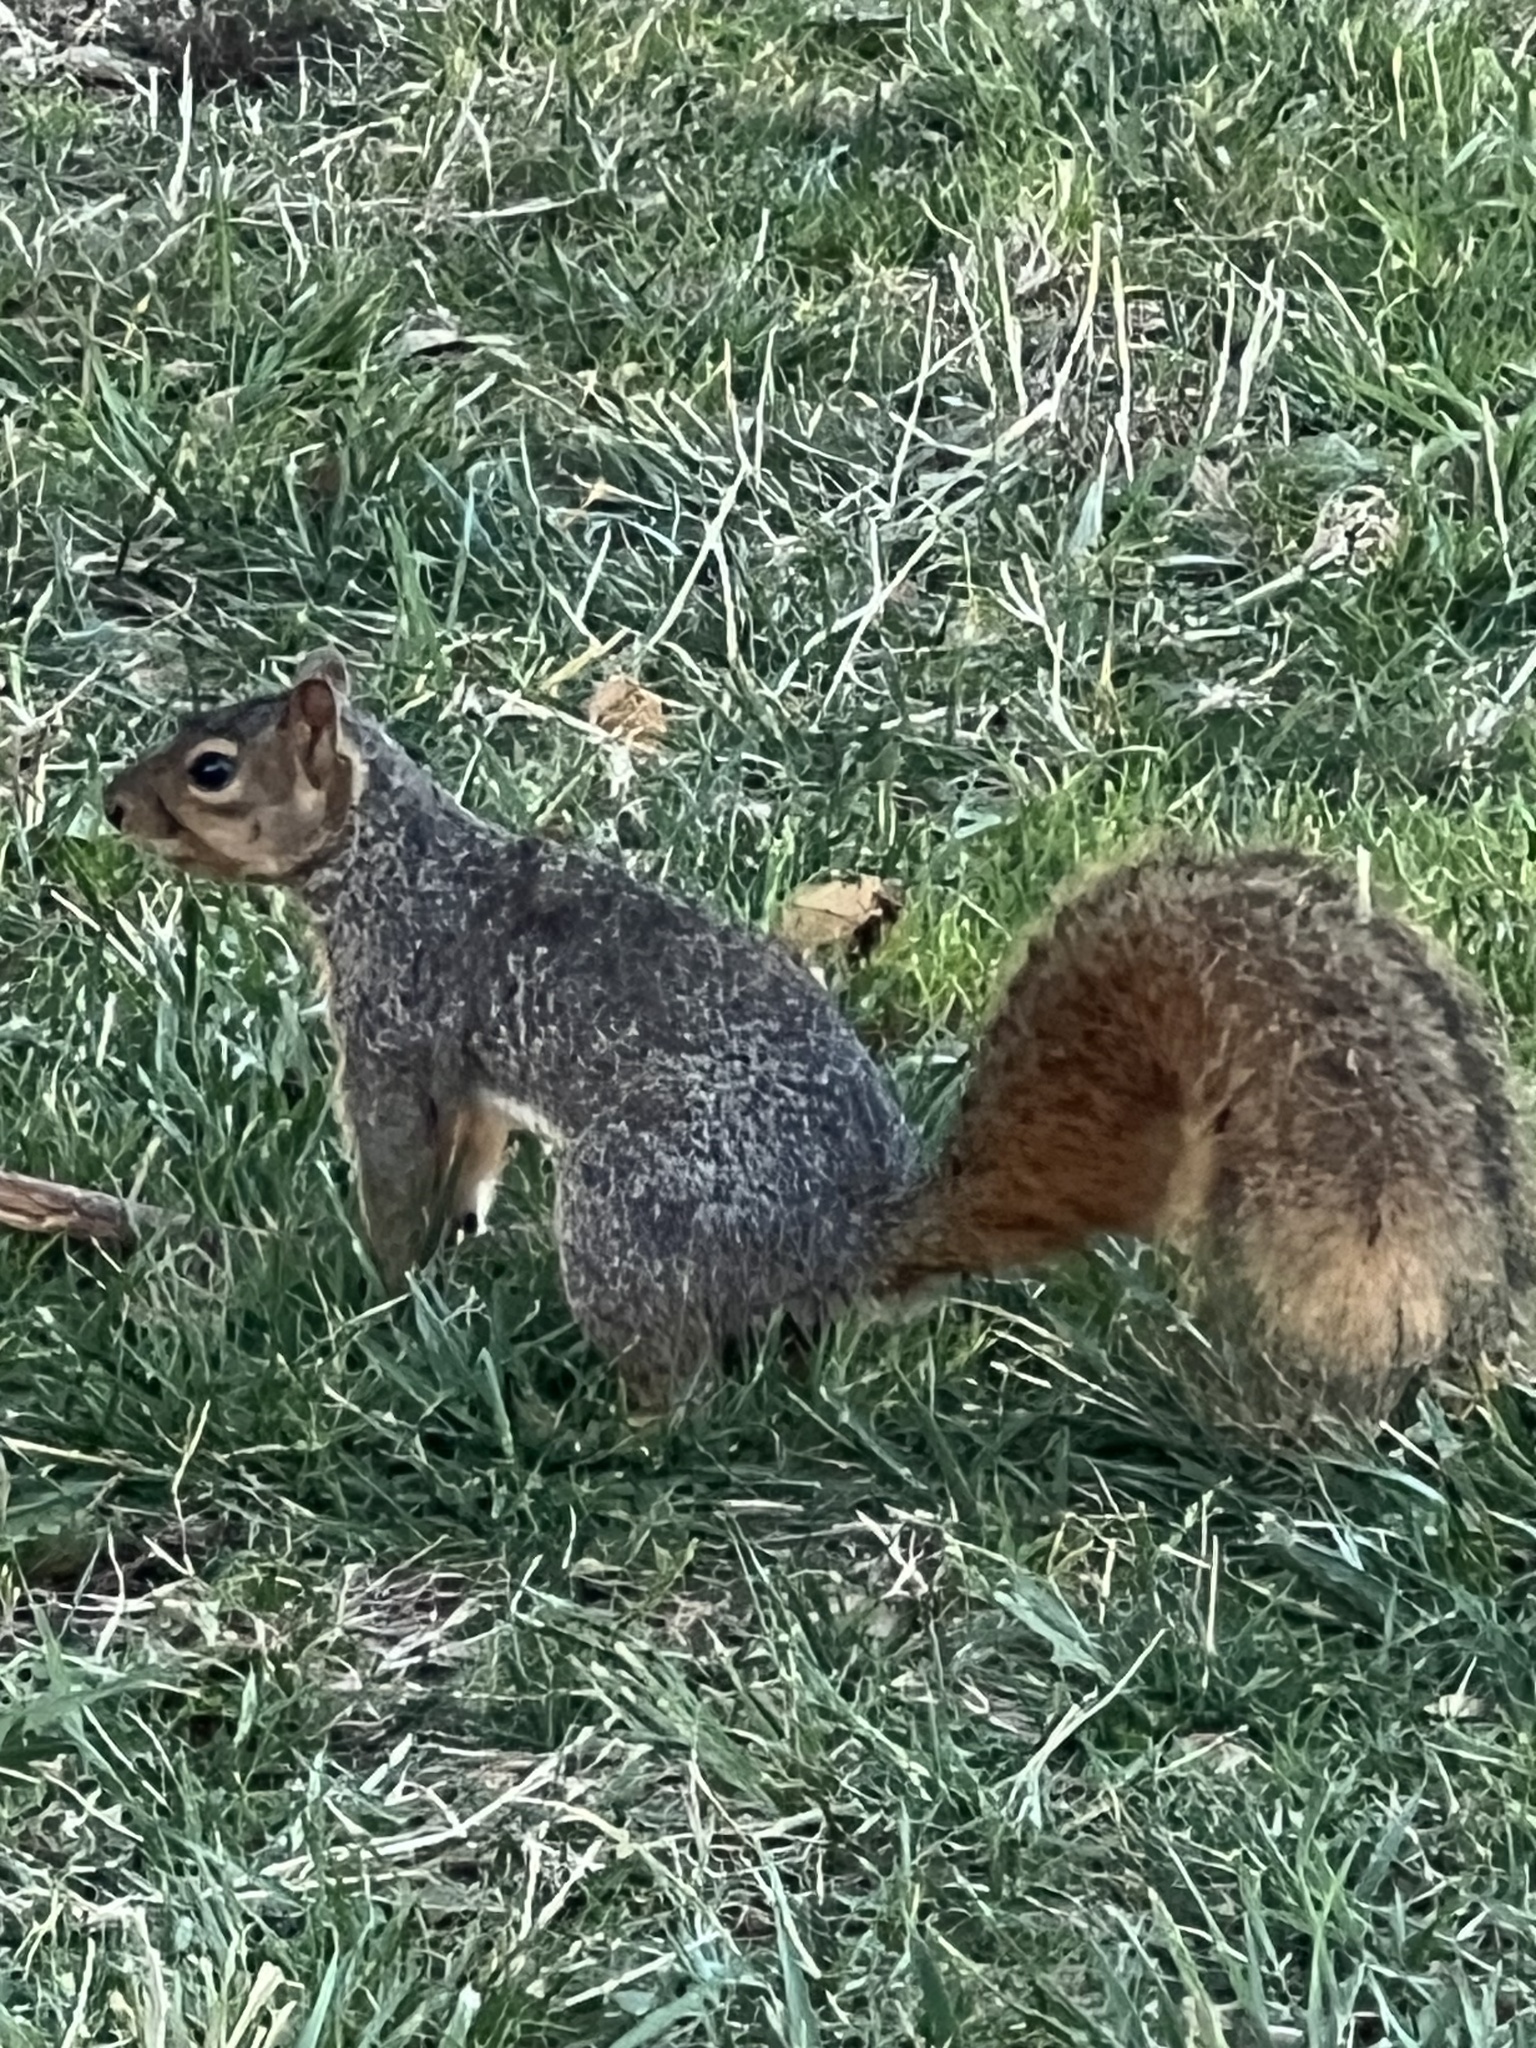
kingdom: Animalia
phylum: Chordata
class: Mammalia
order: Rodentia
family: Sciuridae
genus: Sciurus
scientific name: Sciurus niger
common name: Fox squirrel
